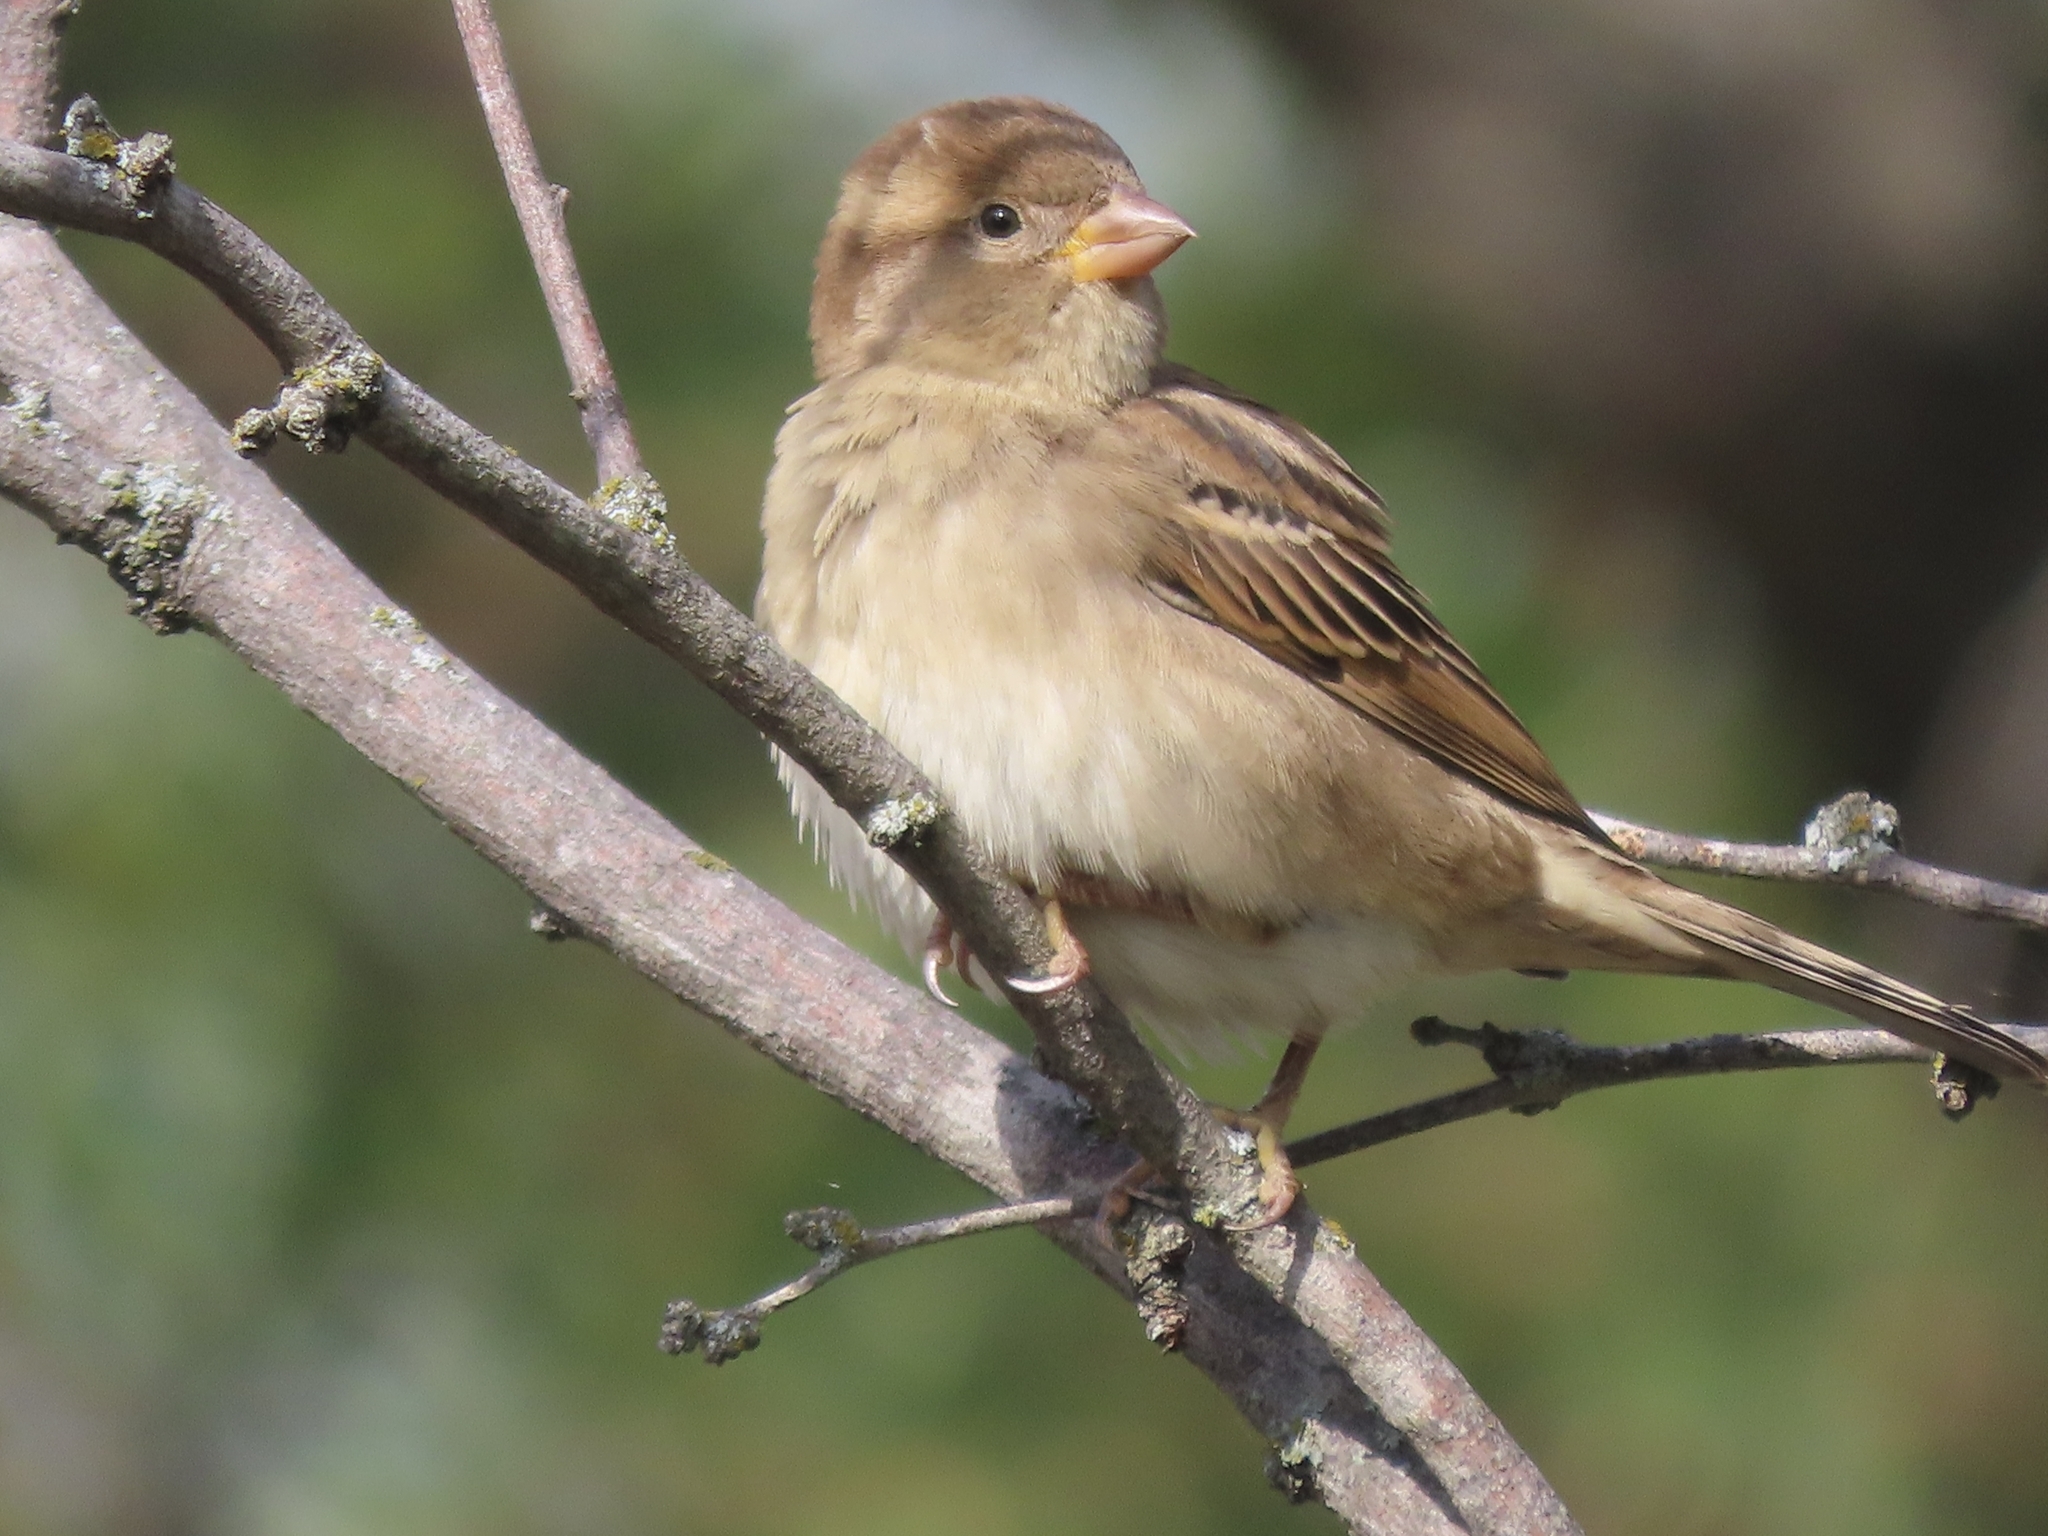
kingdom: Animalia
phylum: Chordata
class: Aves
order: Passeriformes
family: Passeridae
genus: Passer
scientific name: Passer domesticus
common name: House sparrow
